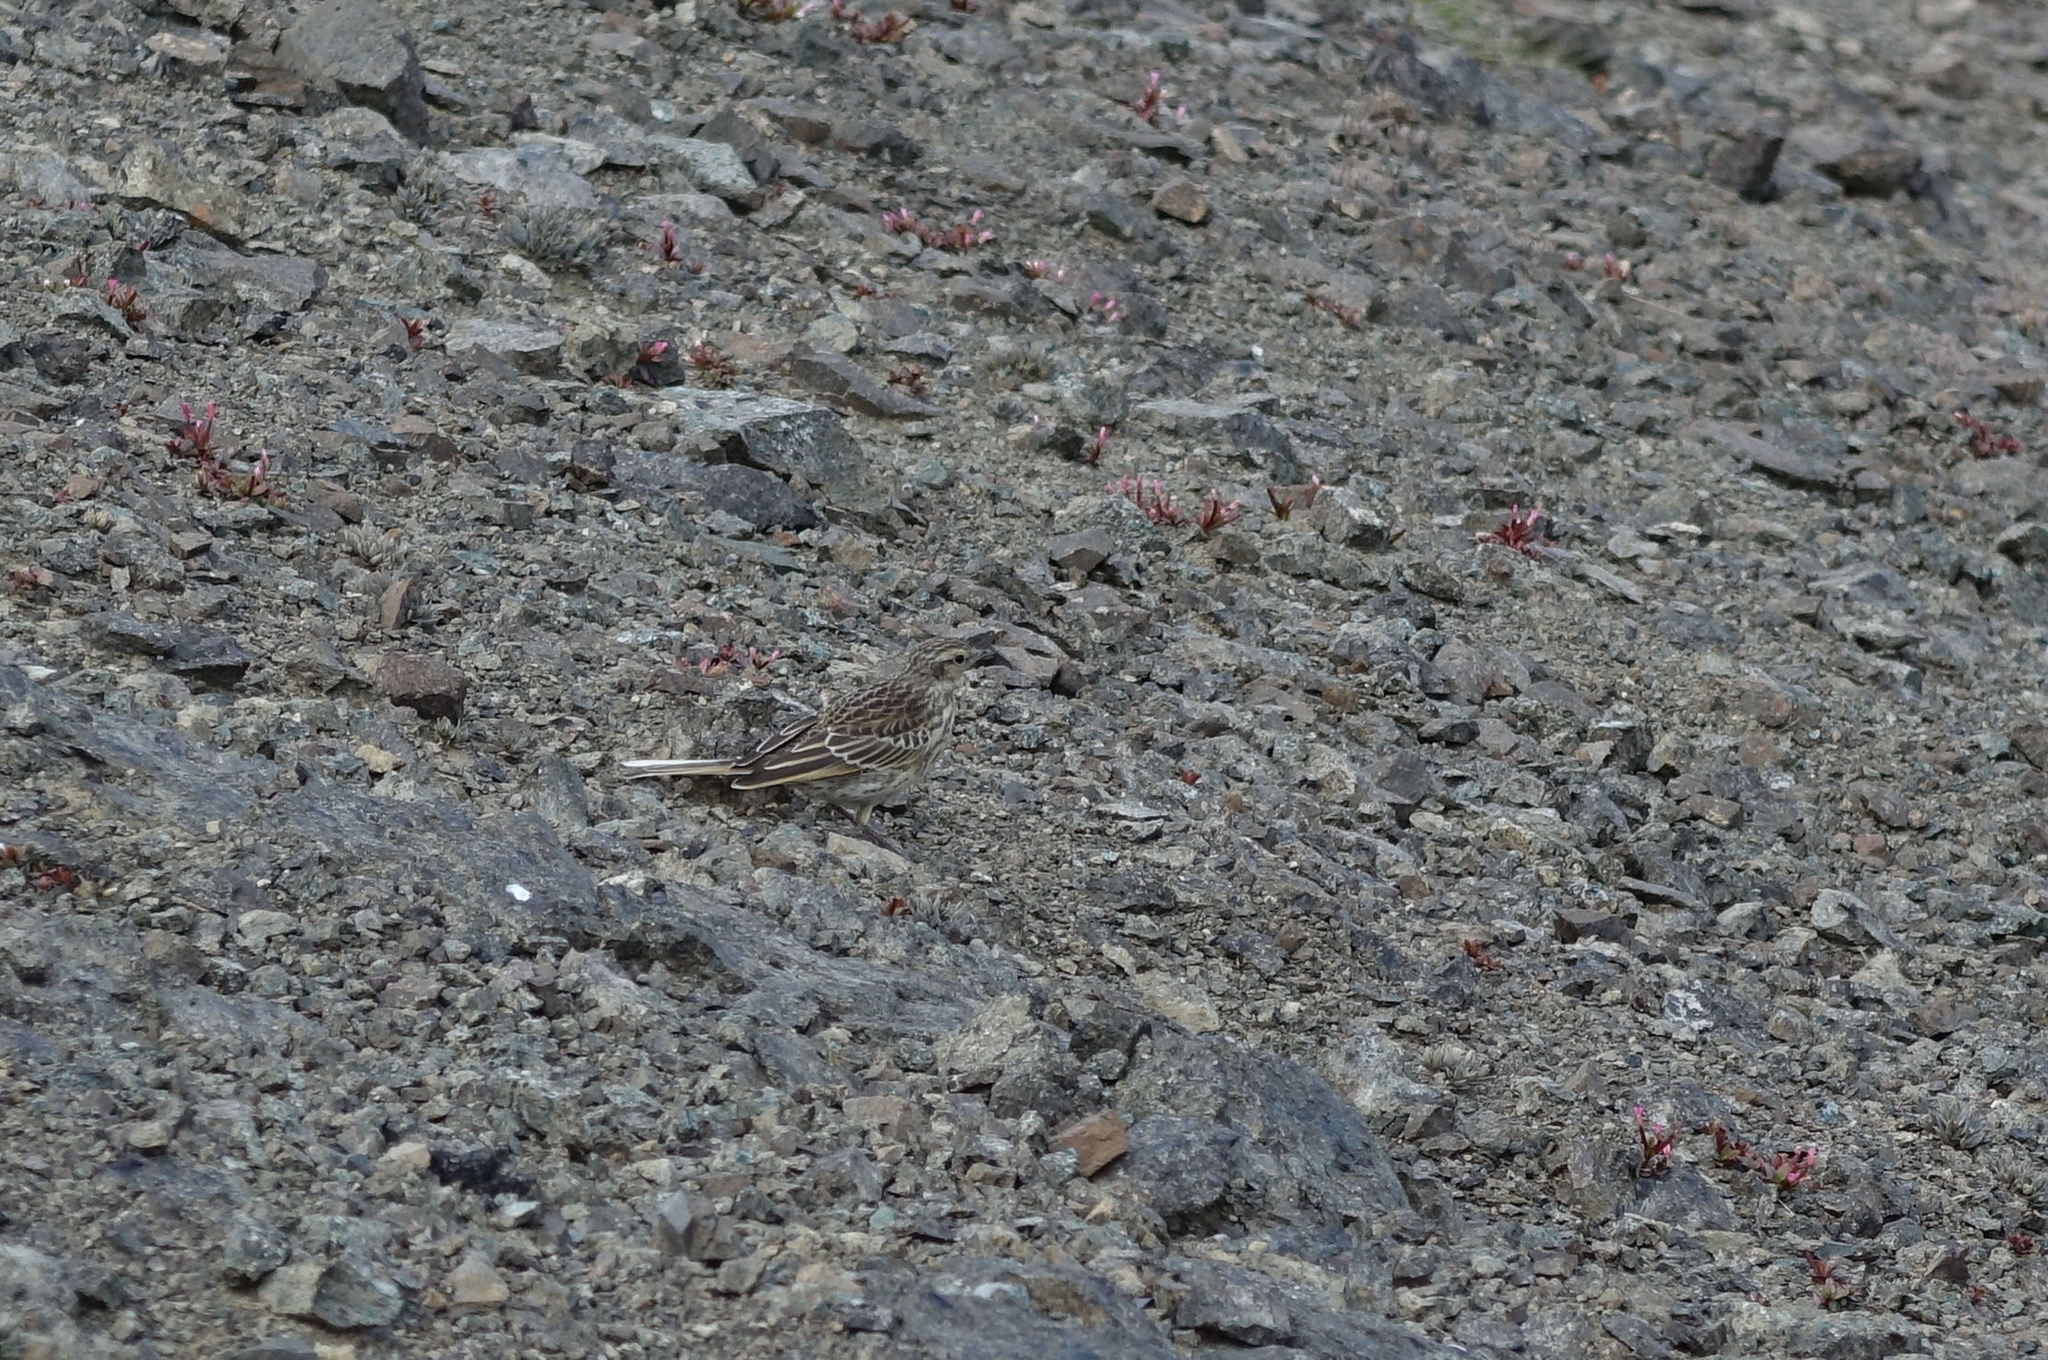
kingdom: Animalia
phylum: Chordata
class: Aves
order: Passeriformes
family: Motacillidae
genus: Anthus
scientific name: Anthus novaeseelandiae
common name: New zealand pipit
